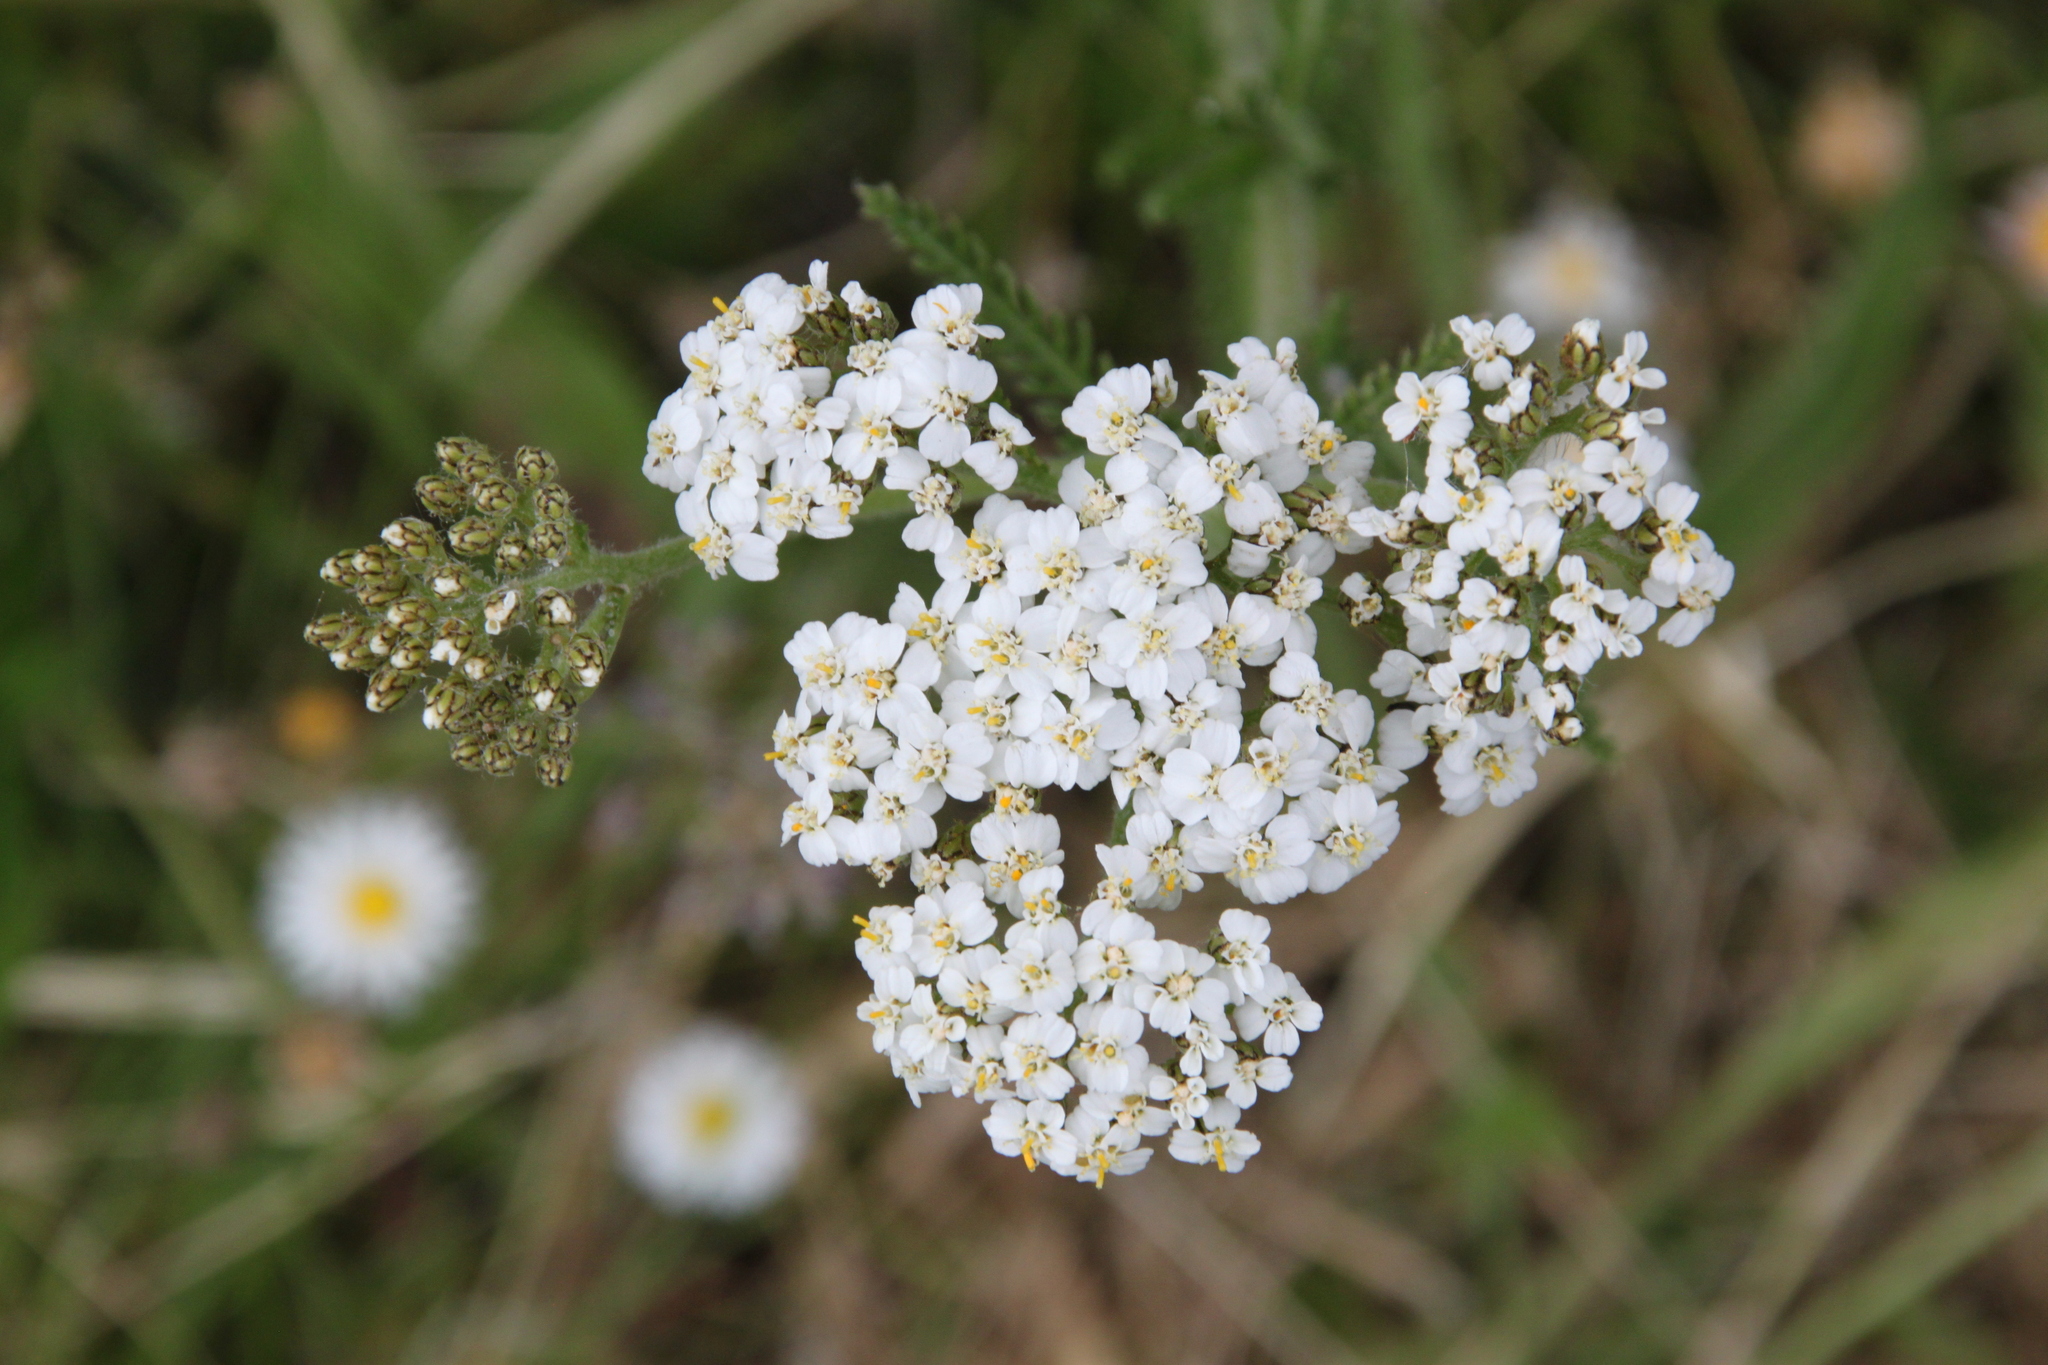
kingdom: Plantae
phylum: Tracheophyta
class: Magnoliopsida
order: Asterales
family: Asteraceae
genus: Achillea
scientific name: Achillea millefolium
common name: Yarrow
